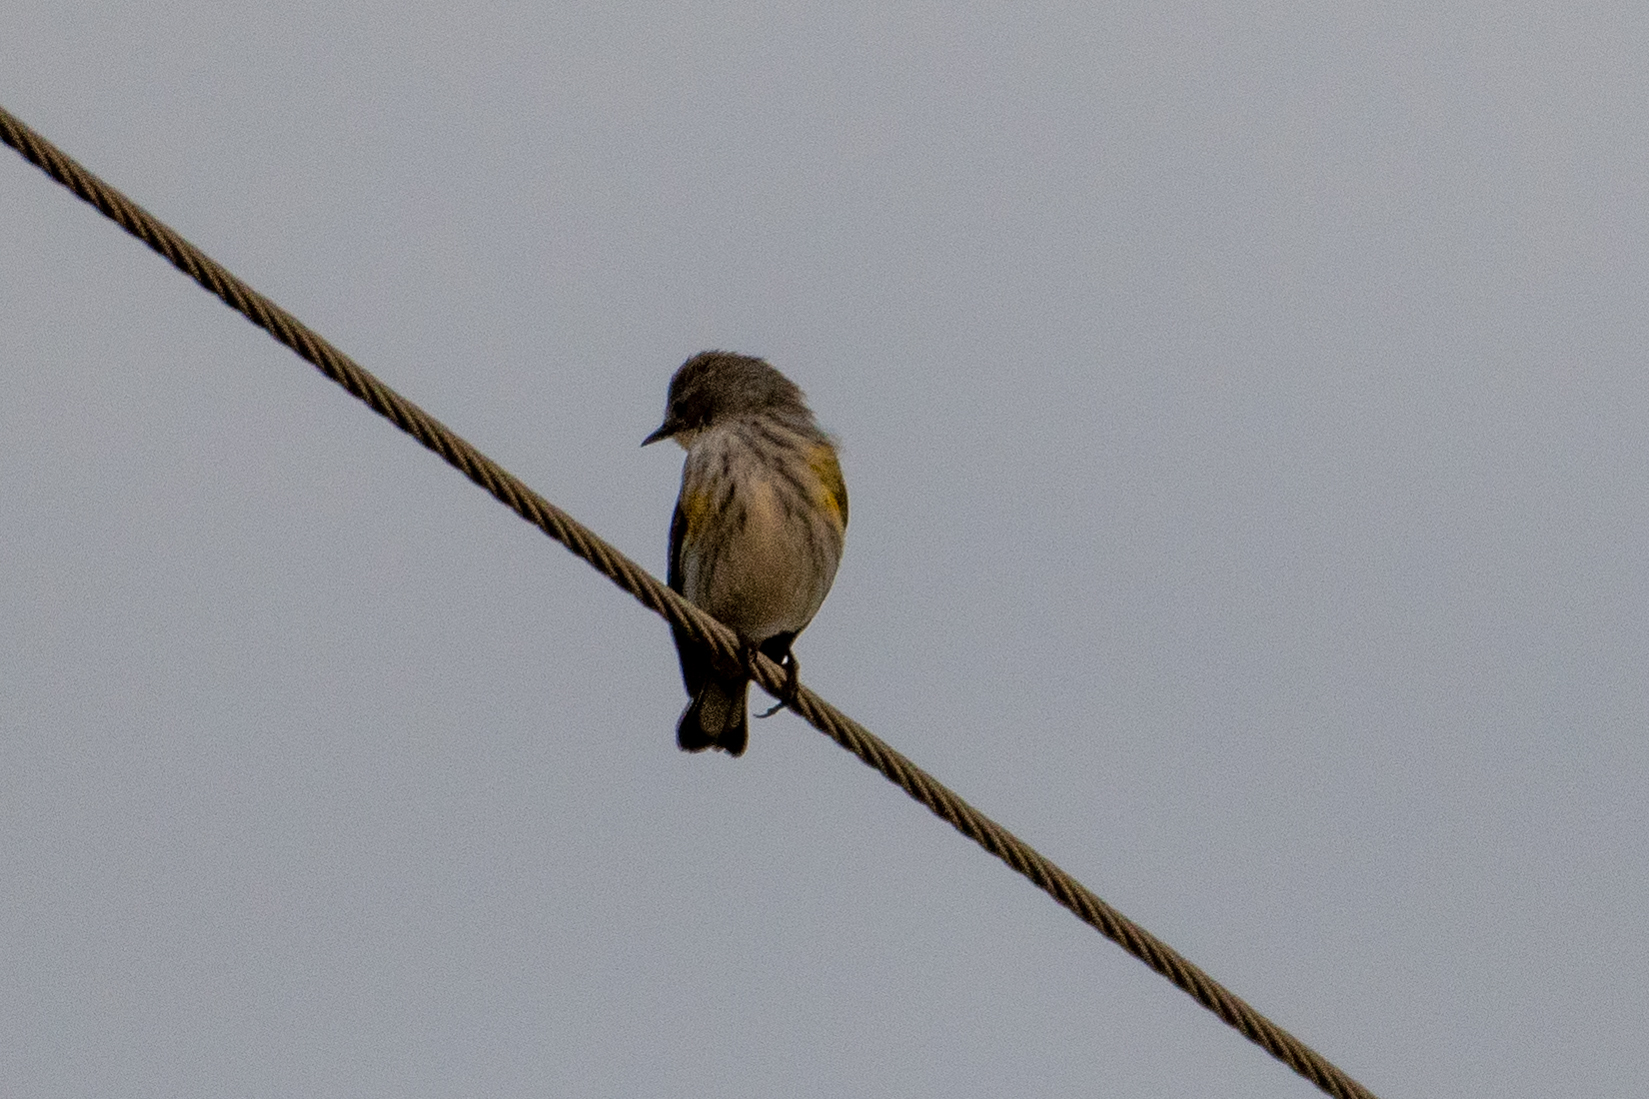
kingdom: Animalia
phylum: Chordata
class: Aves
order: Passeriformes
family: Parulidae
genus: Setophaga
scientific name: Setophaga coronata
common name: Myrtle warbler
